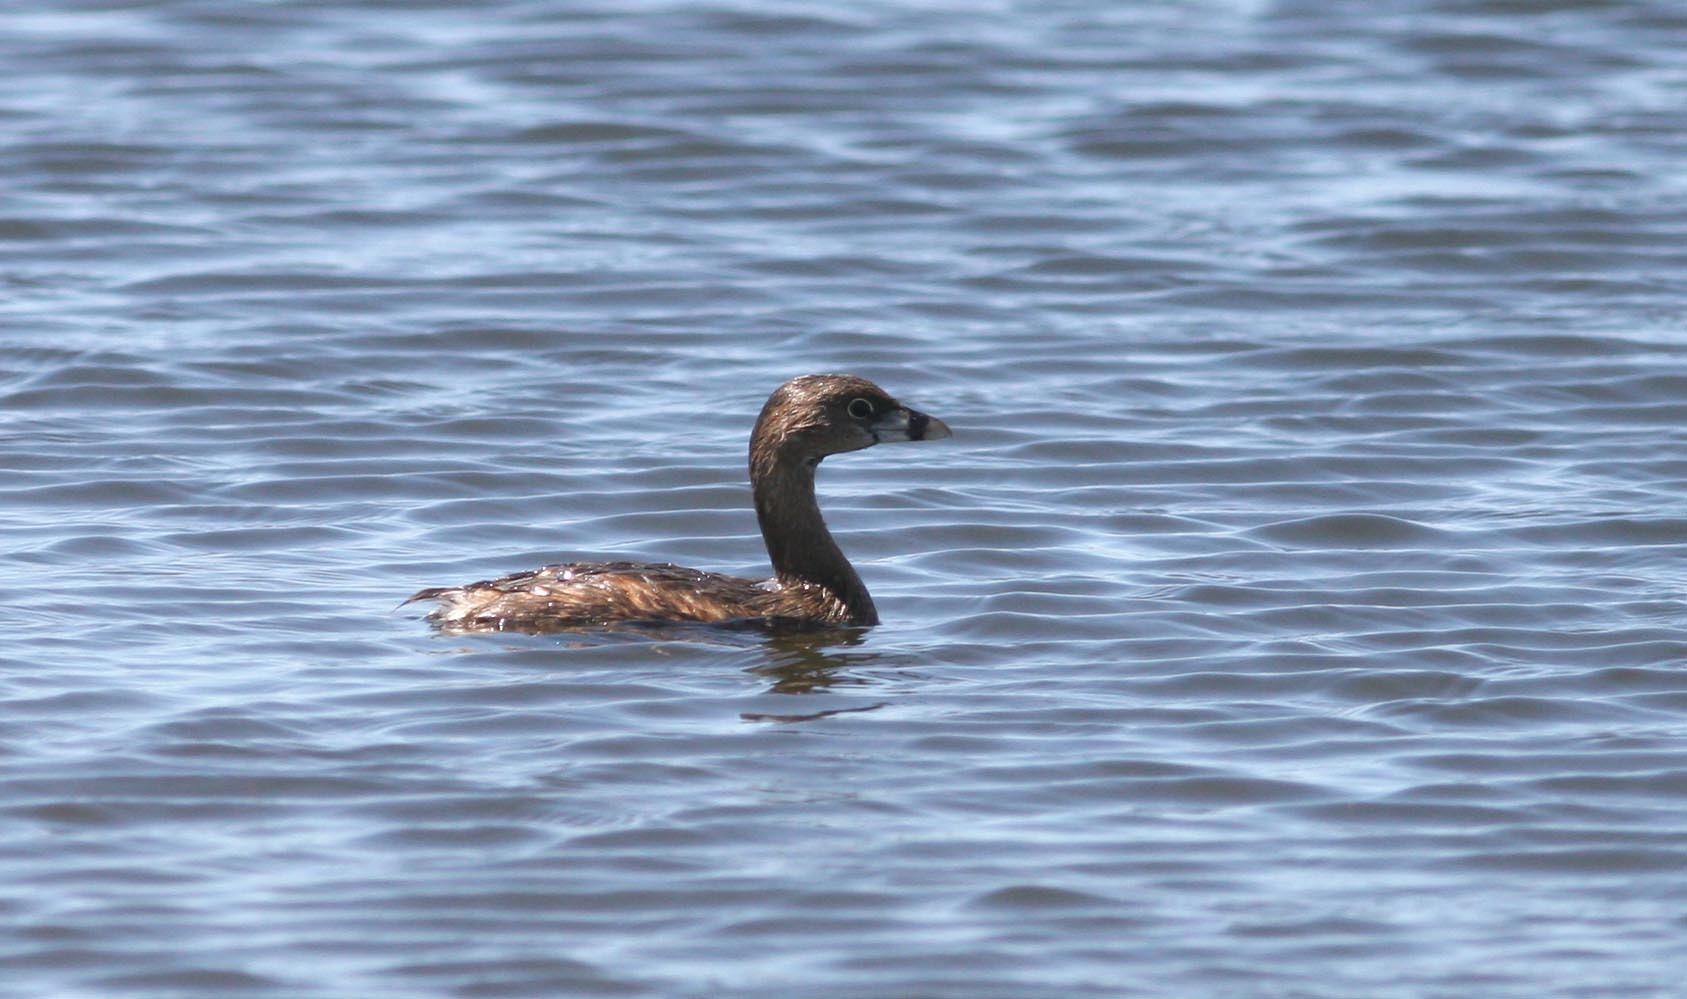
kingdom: Animalia
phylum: Chordata
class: Aves
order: Podicipediformes
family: Podicipedidae
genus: Podilymbus
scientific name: Podilymbus podiceps
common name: Pied-billed grebe
